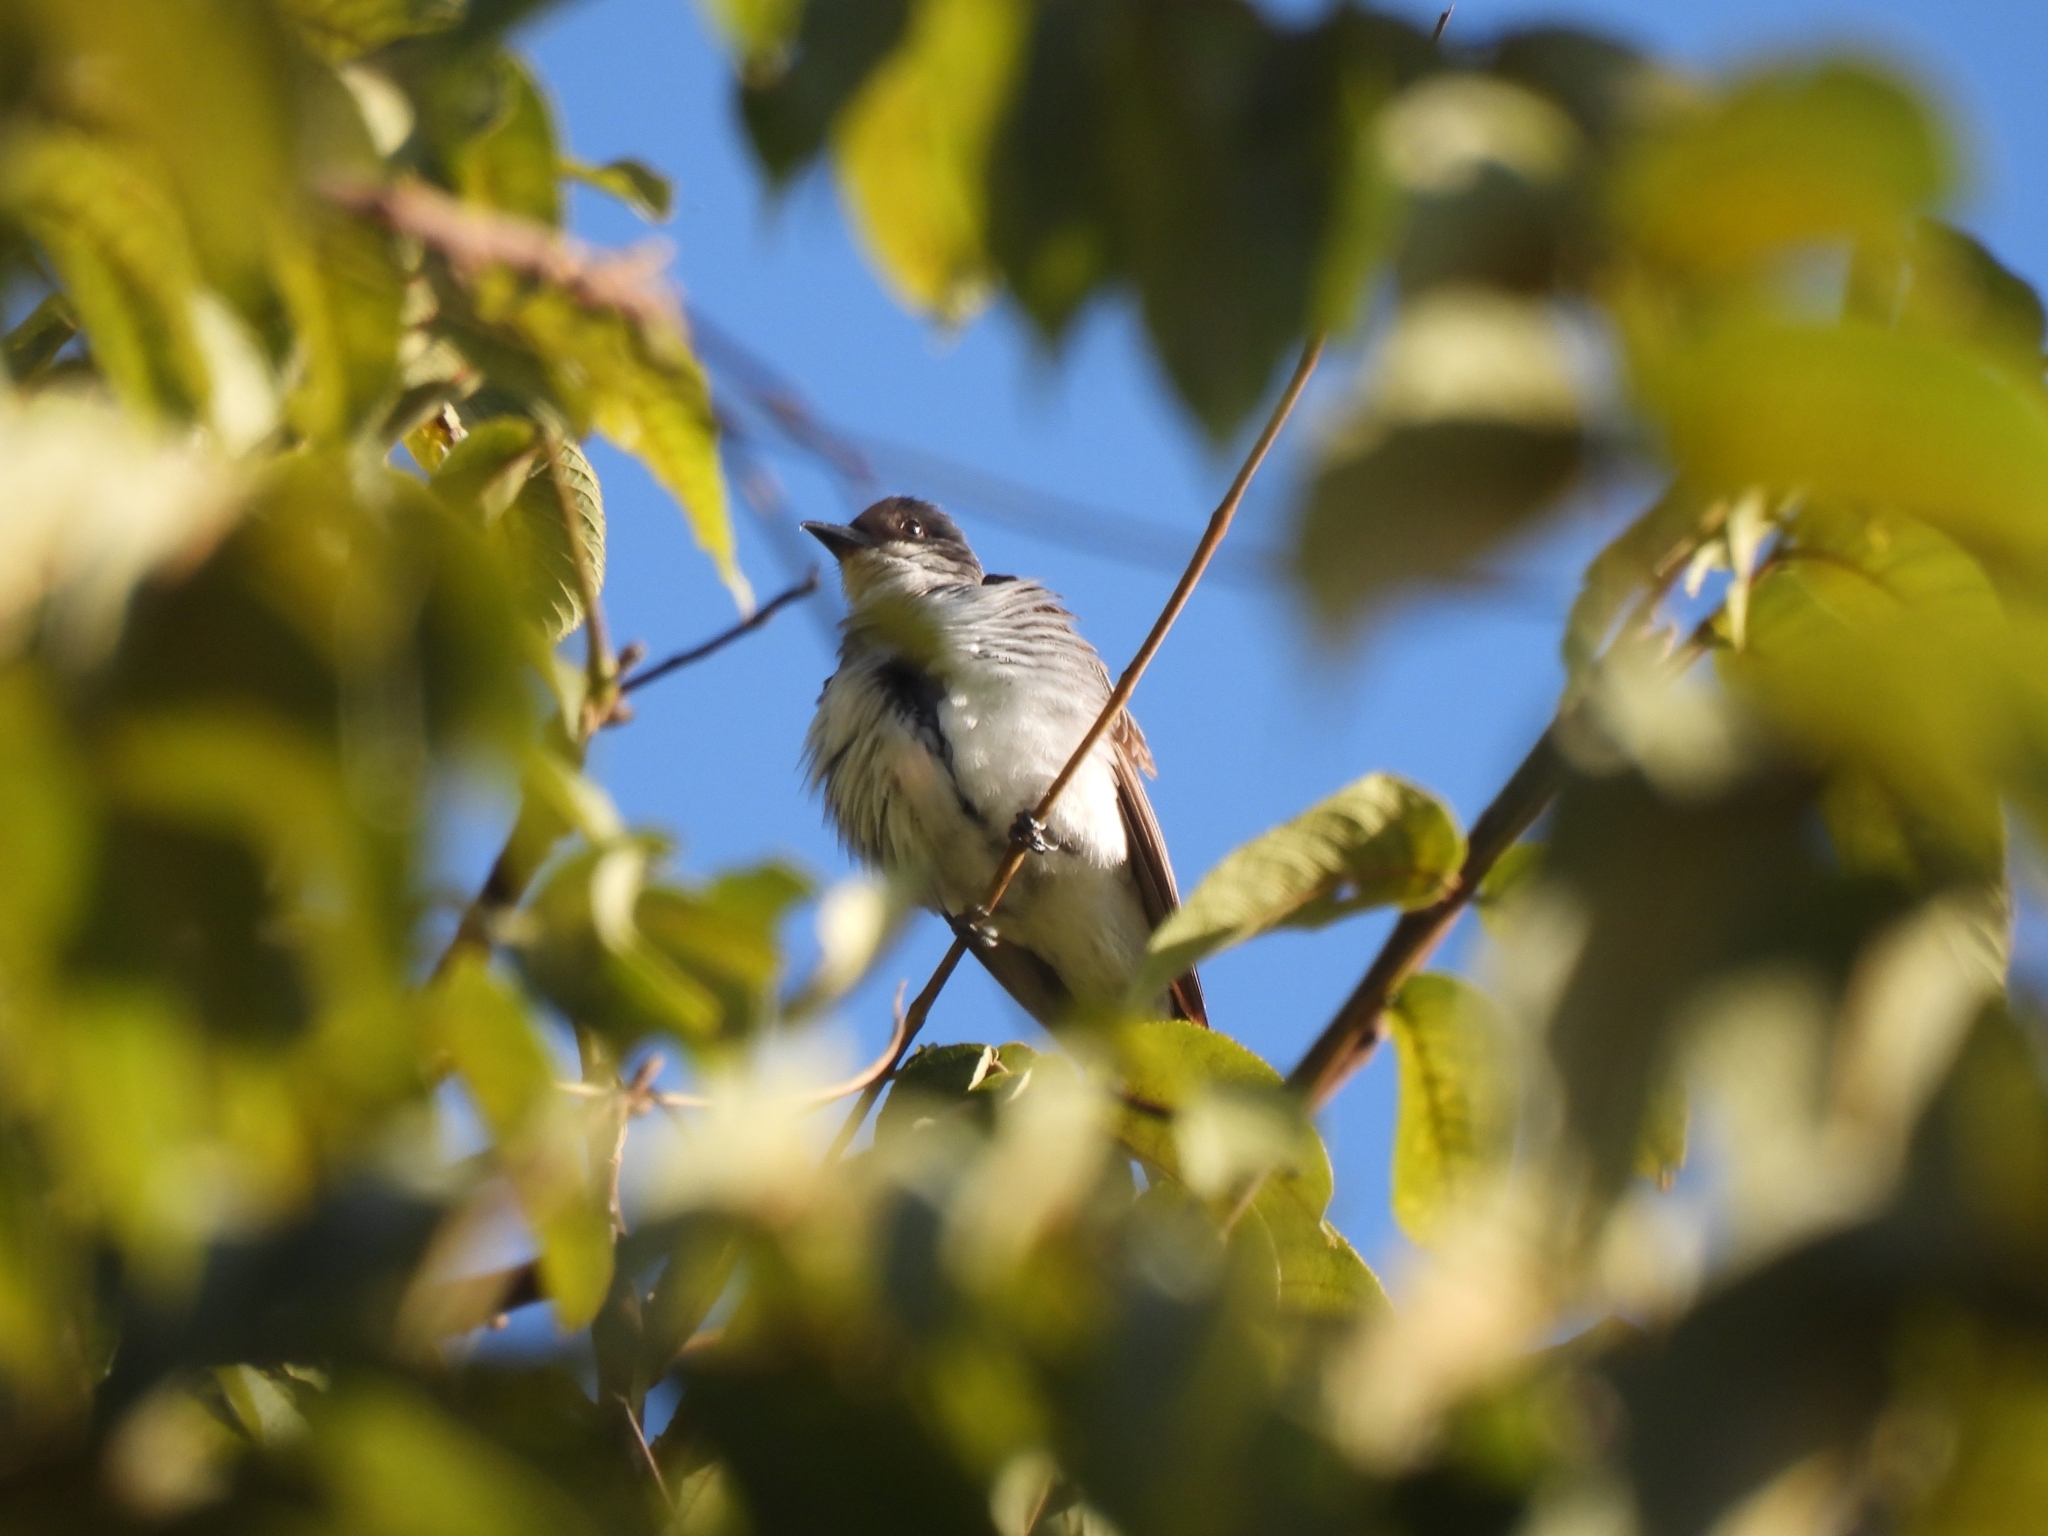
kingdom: Animalia
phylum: Chordata
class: Aves
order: Passeriformes
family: Tyrannidae
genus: Tyrannus
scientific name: Tyrannus tyrannus
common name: Eastern kingbird
